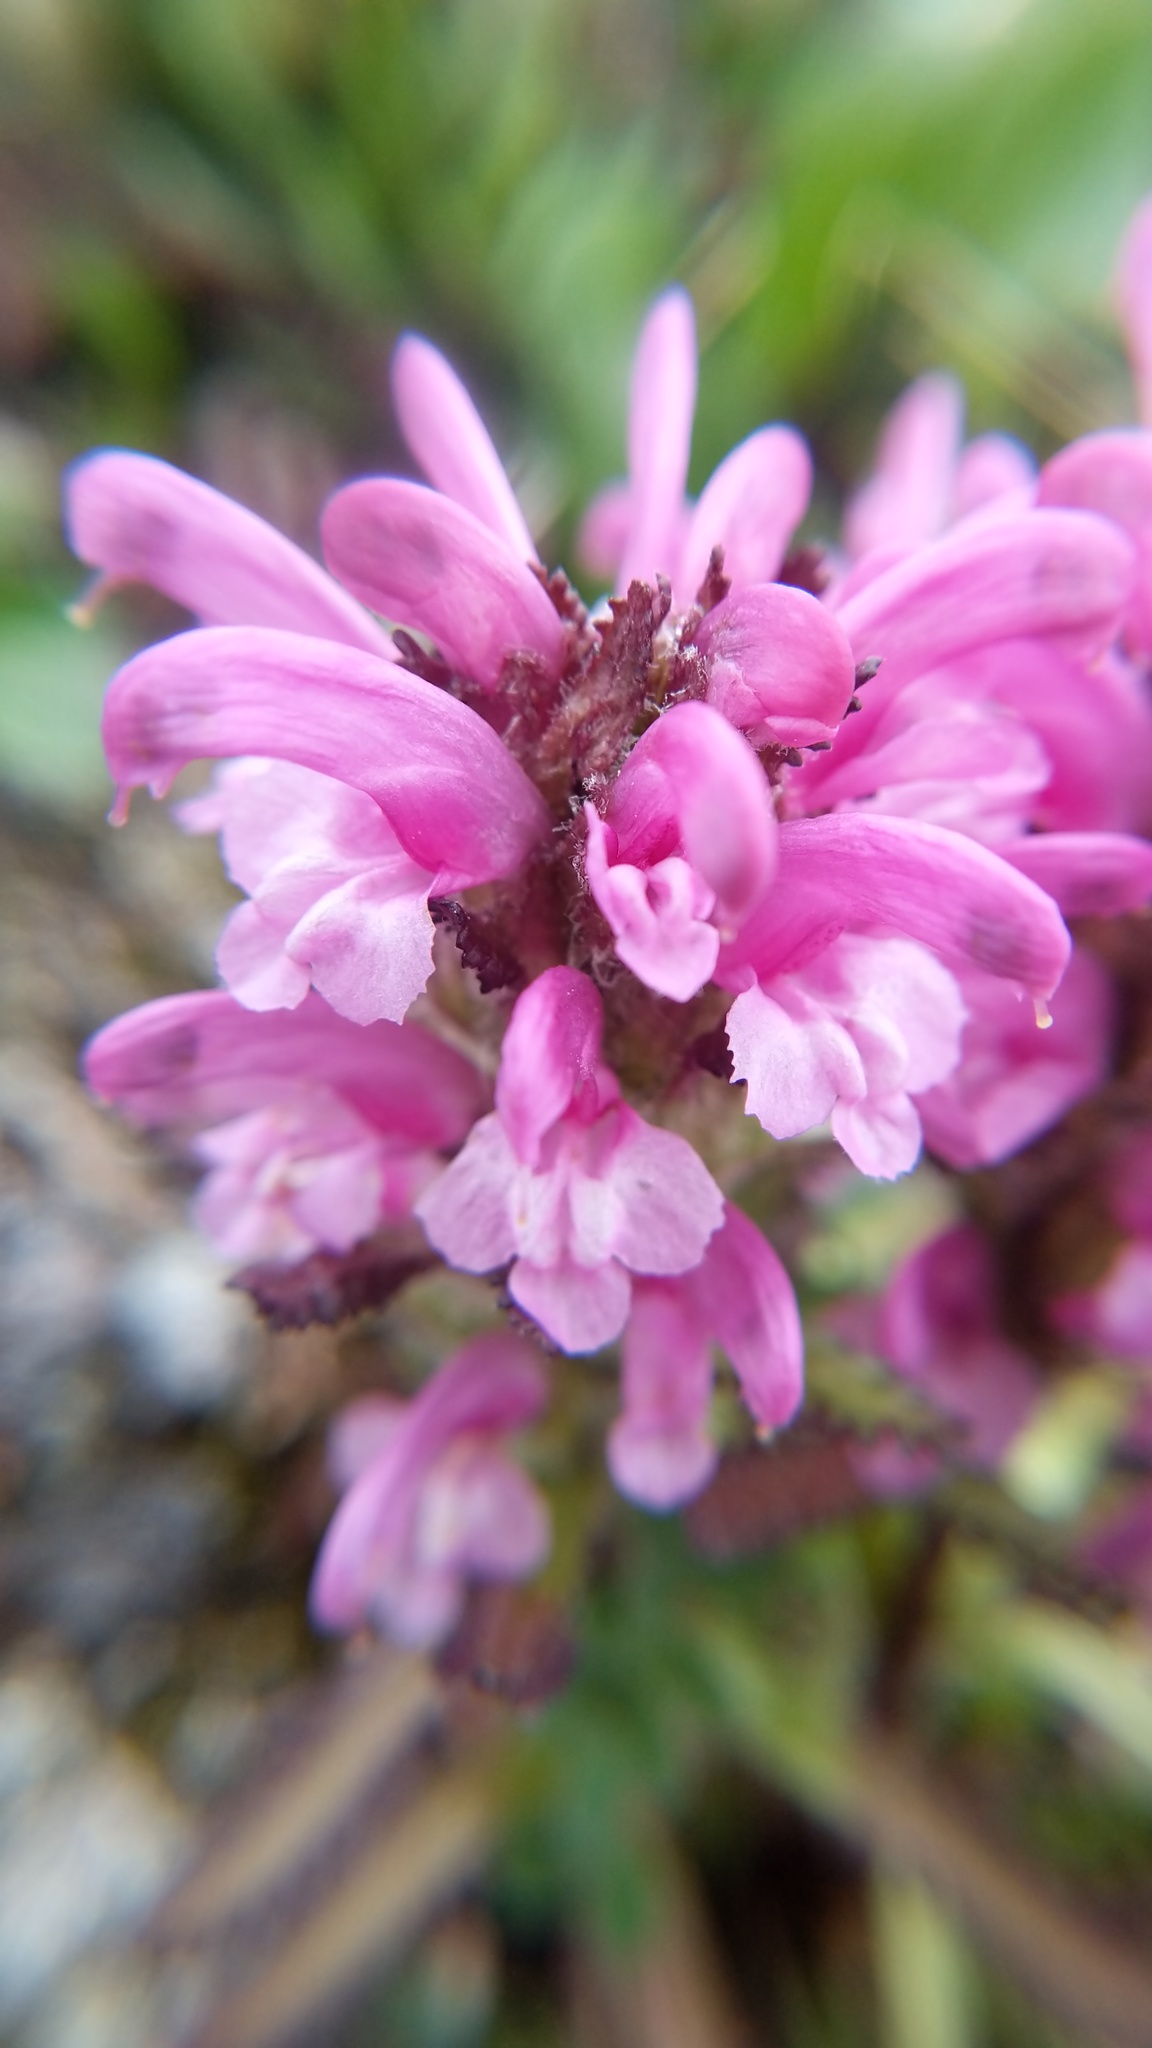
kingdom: Plantae
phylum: Tracheophyta
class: Magnoliopsida
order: Lamiales
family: Orobanchaceae
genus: Pedicularis
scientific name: Pedicularis langsdorffii
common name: Langsdorff's lousewort
